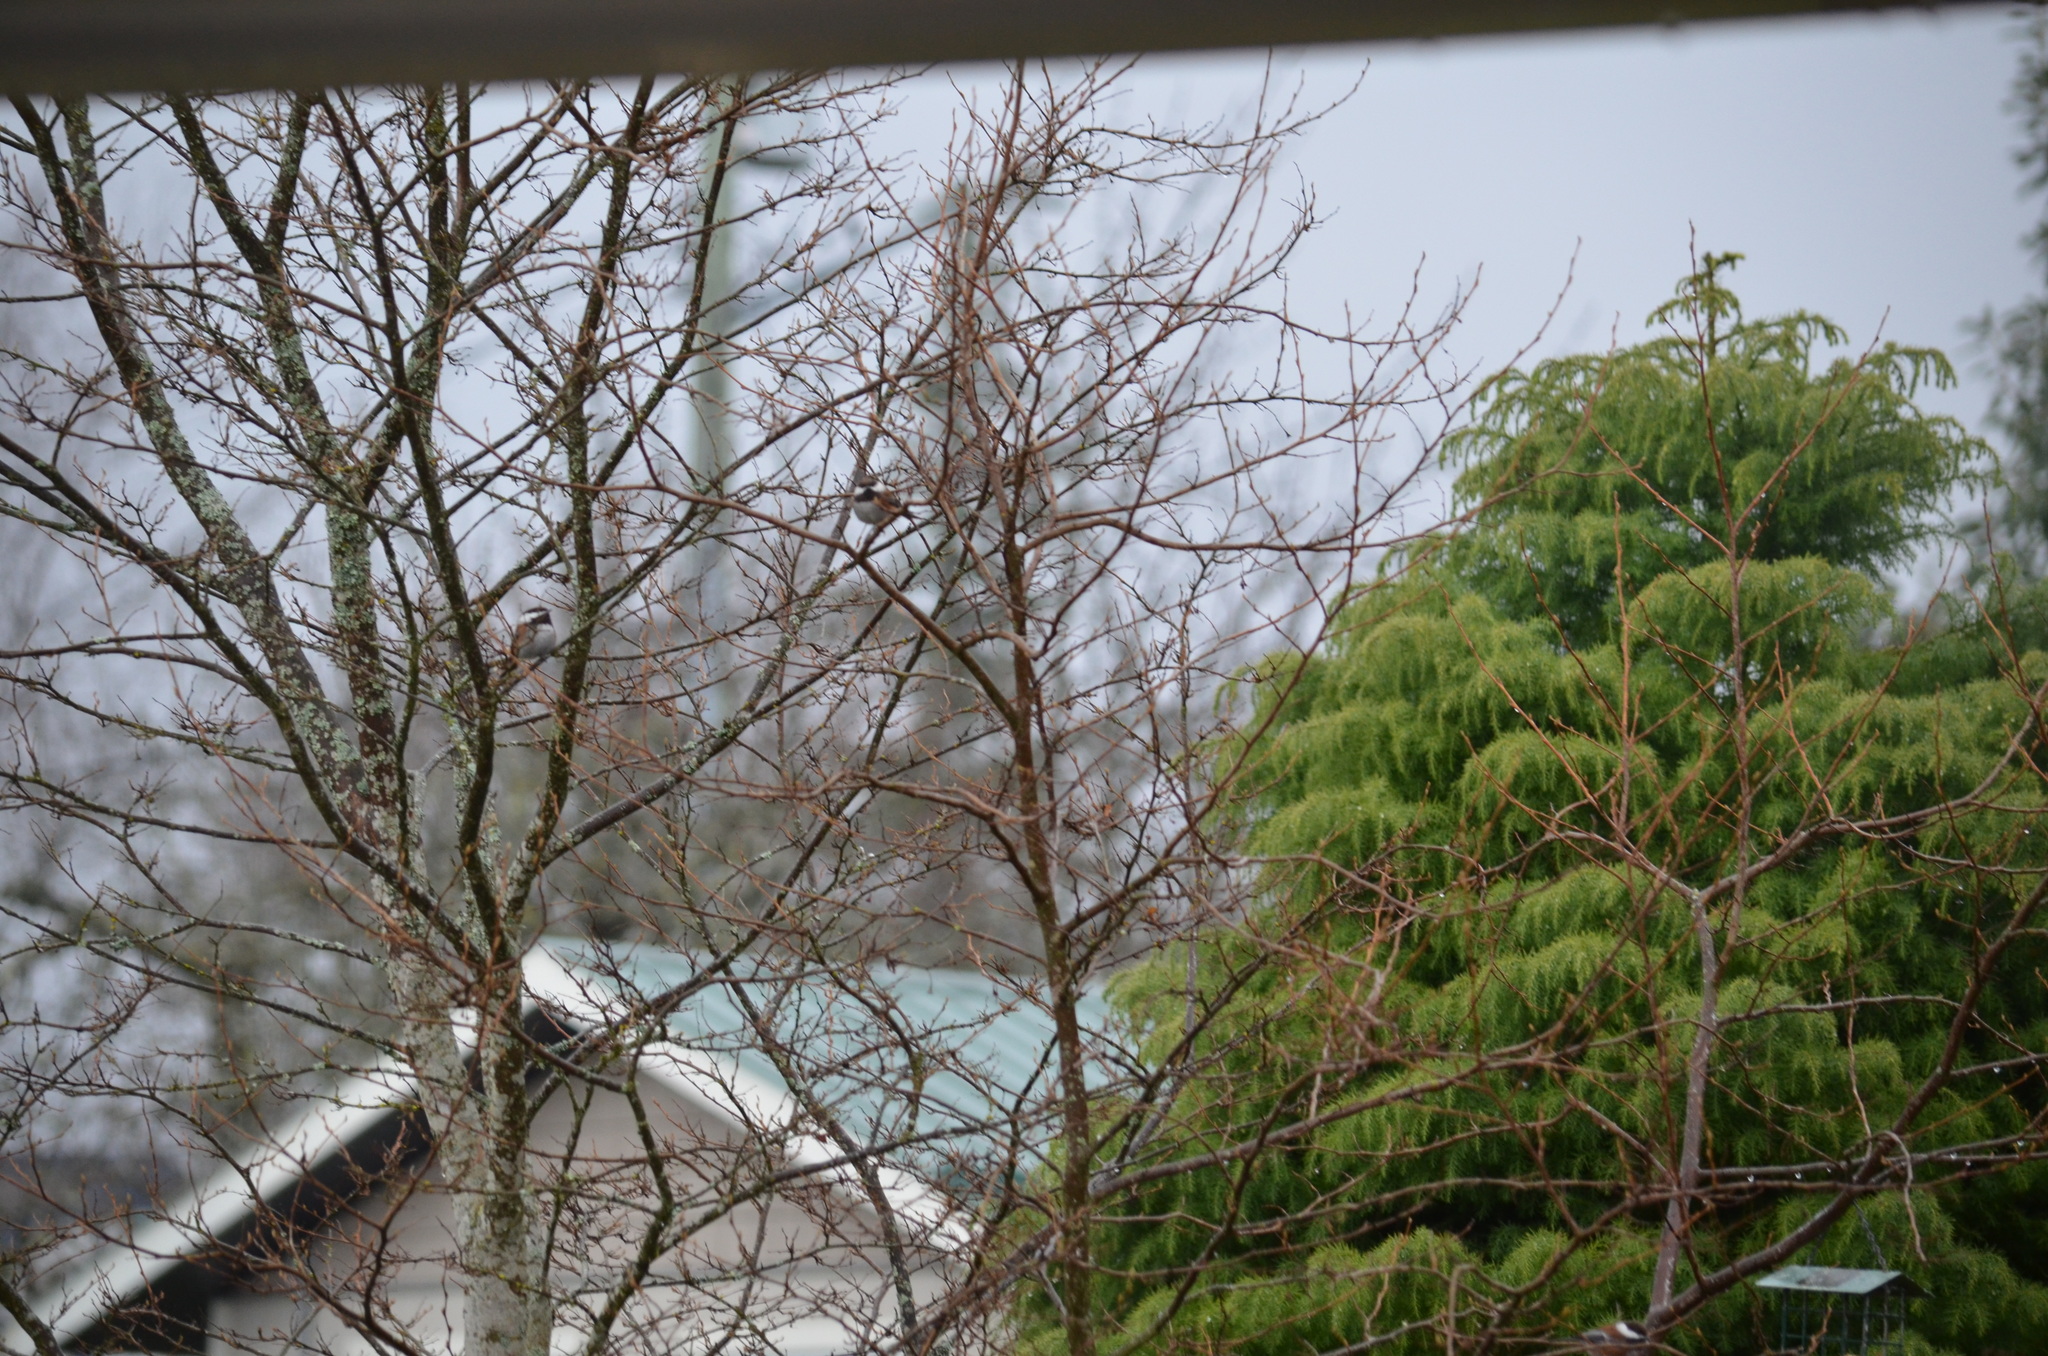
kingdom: Animalia
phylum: Chordata
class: Aves
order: Passeriformes
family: Paridae
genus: Poecile
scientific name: Poecile rufescens
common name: Chestnut-backed chickadee
